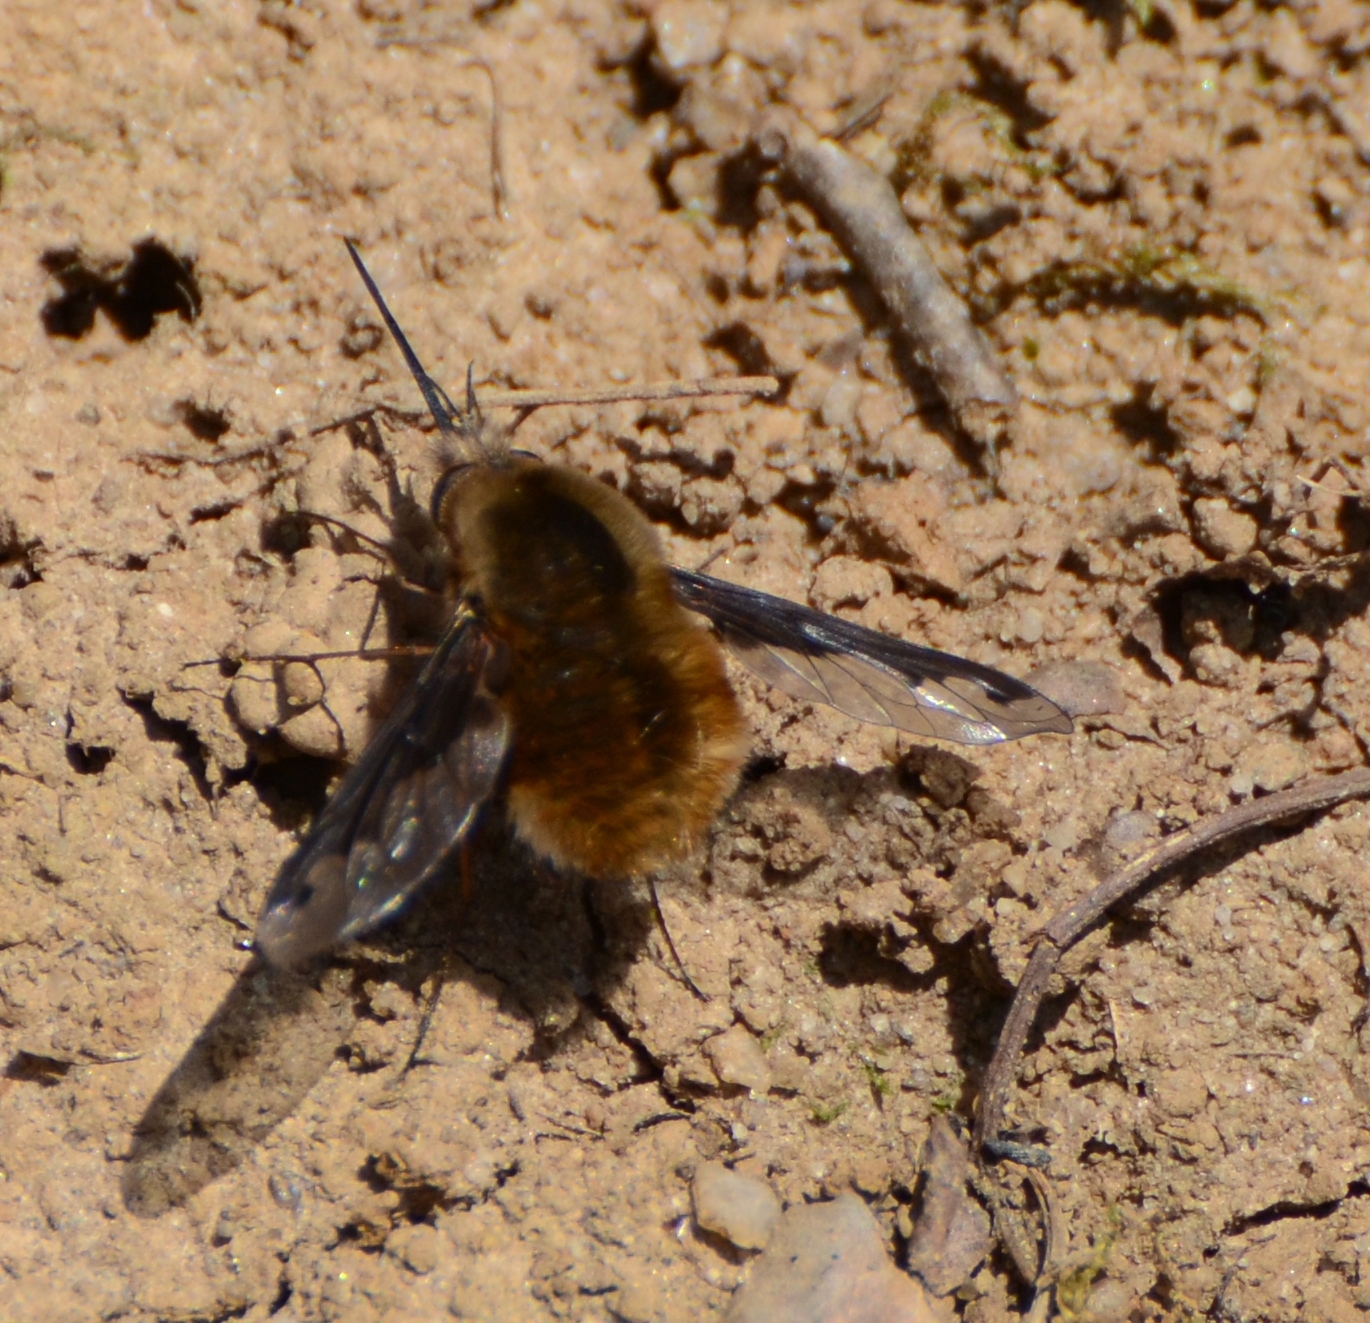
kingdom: Animalia
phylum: Arthropoda
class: Insecta
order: Diptera
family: Bombyliidae
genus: Bombylius
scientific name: Bombylius major
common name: Bee fly
